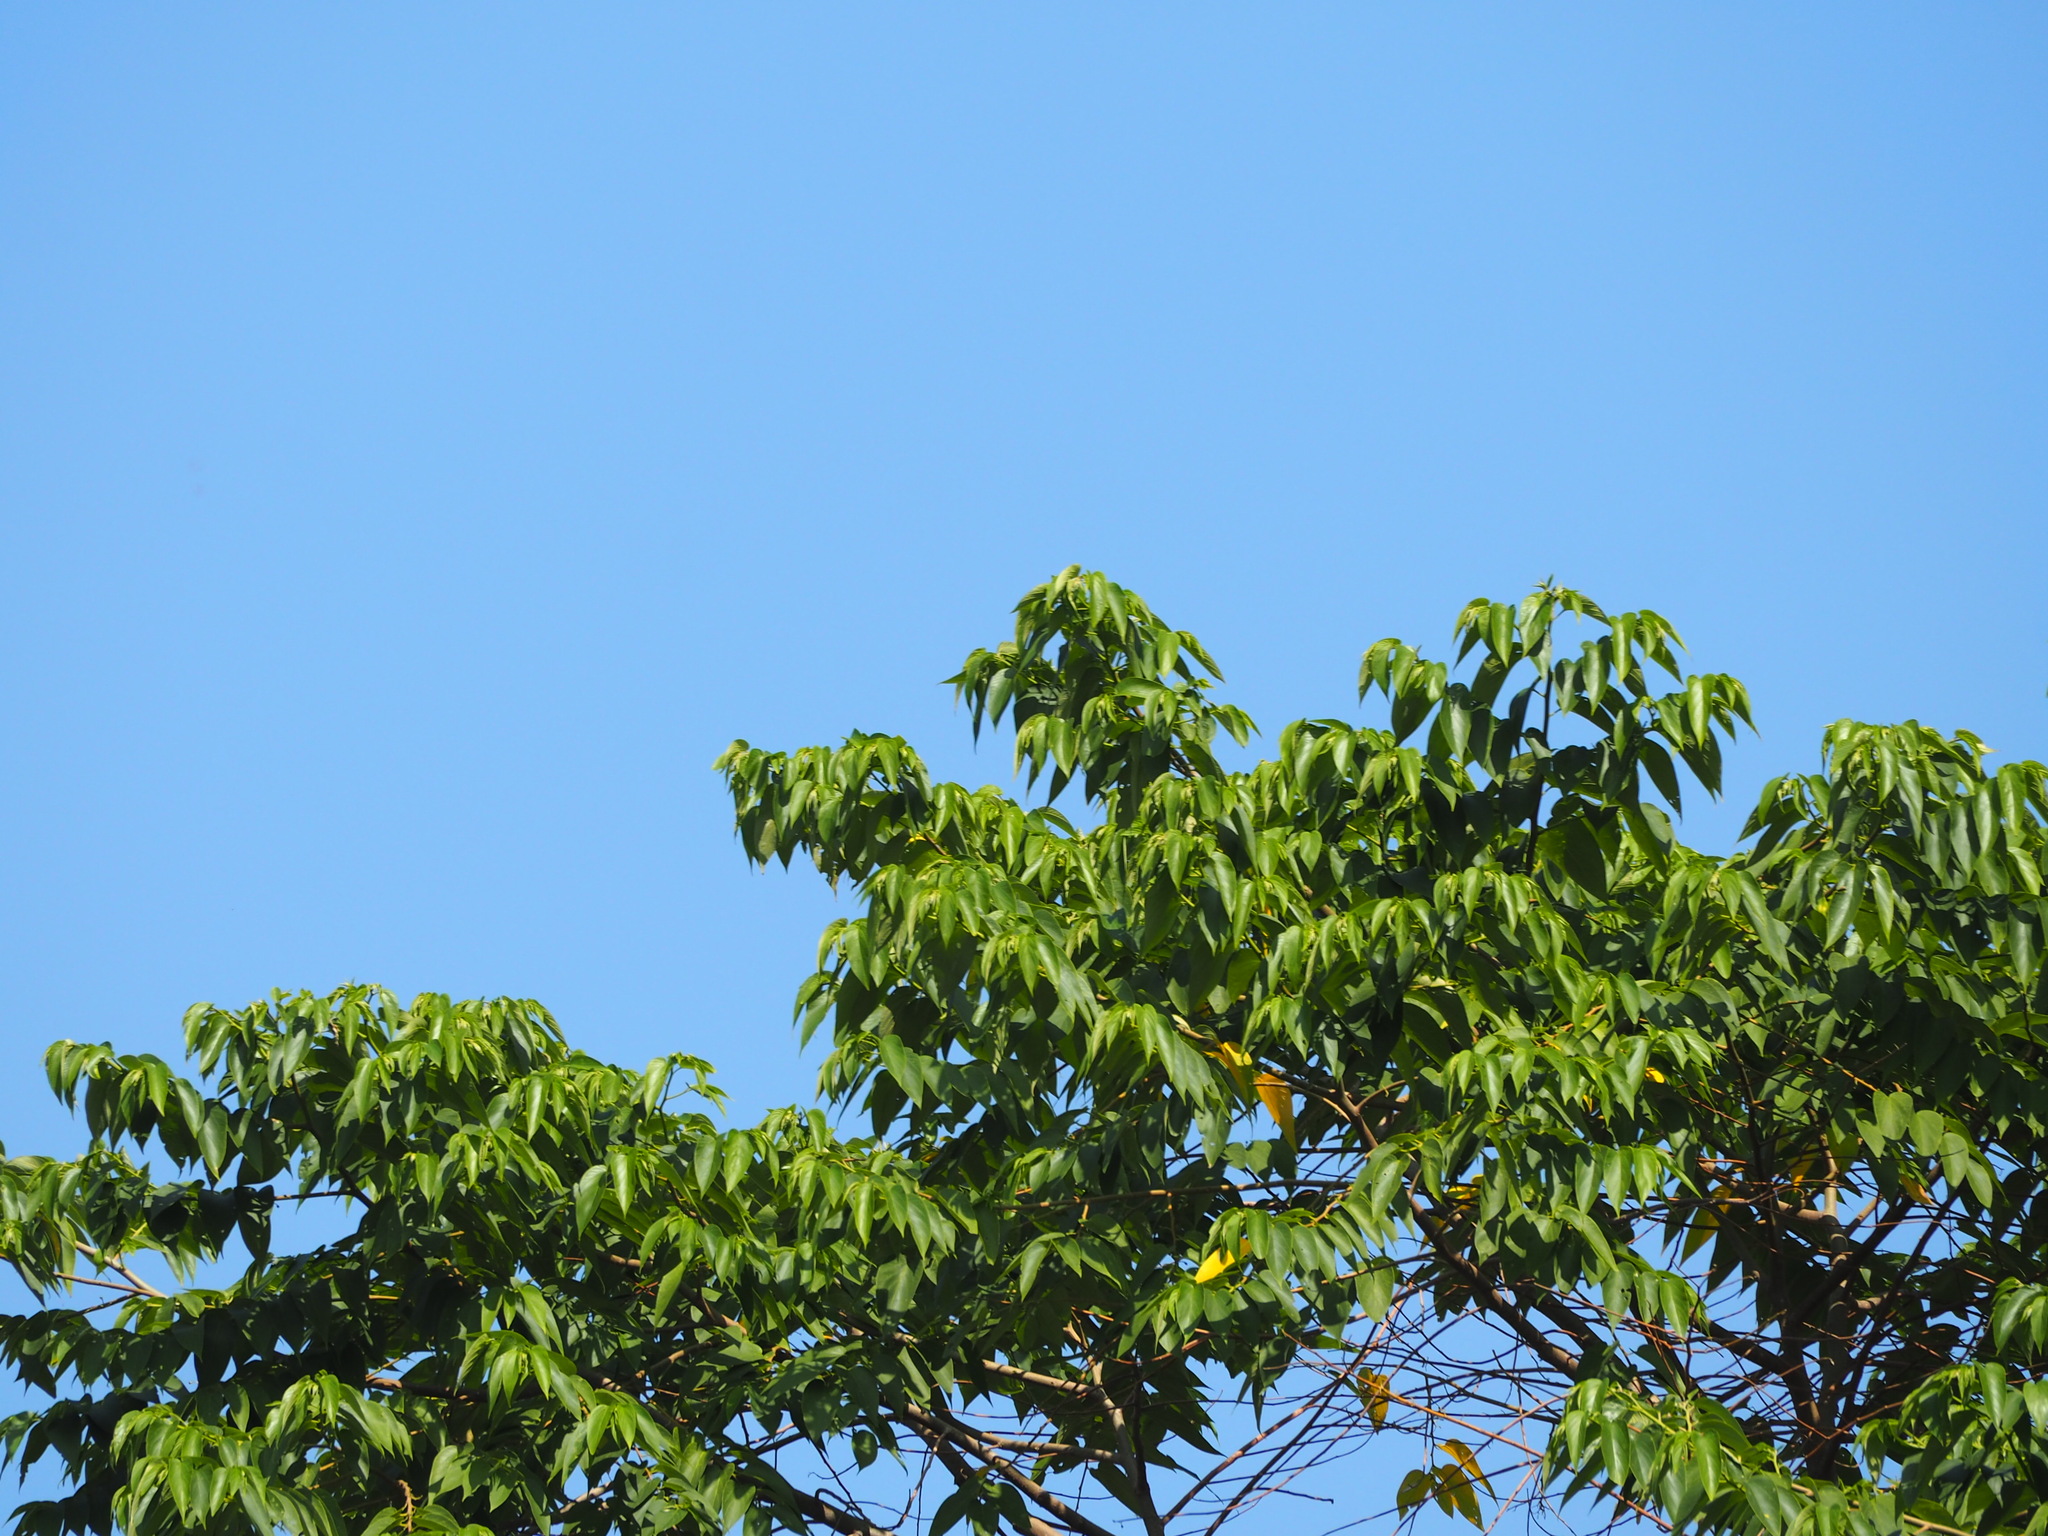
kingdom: Plantae
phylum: Tracheophyta
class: Magnoliopsida
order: Rosales
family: Cannabaceae
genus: Trema
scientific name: Trema orientale
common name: Indian charcoal tree
